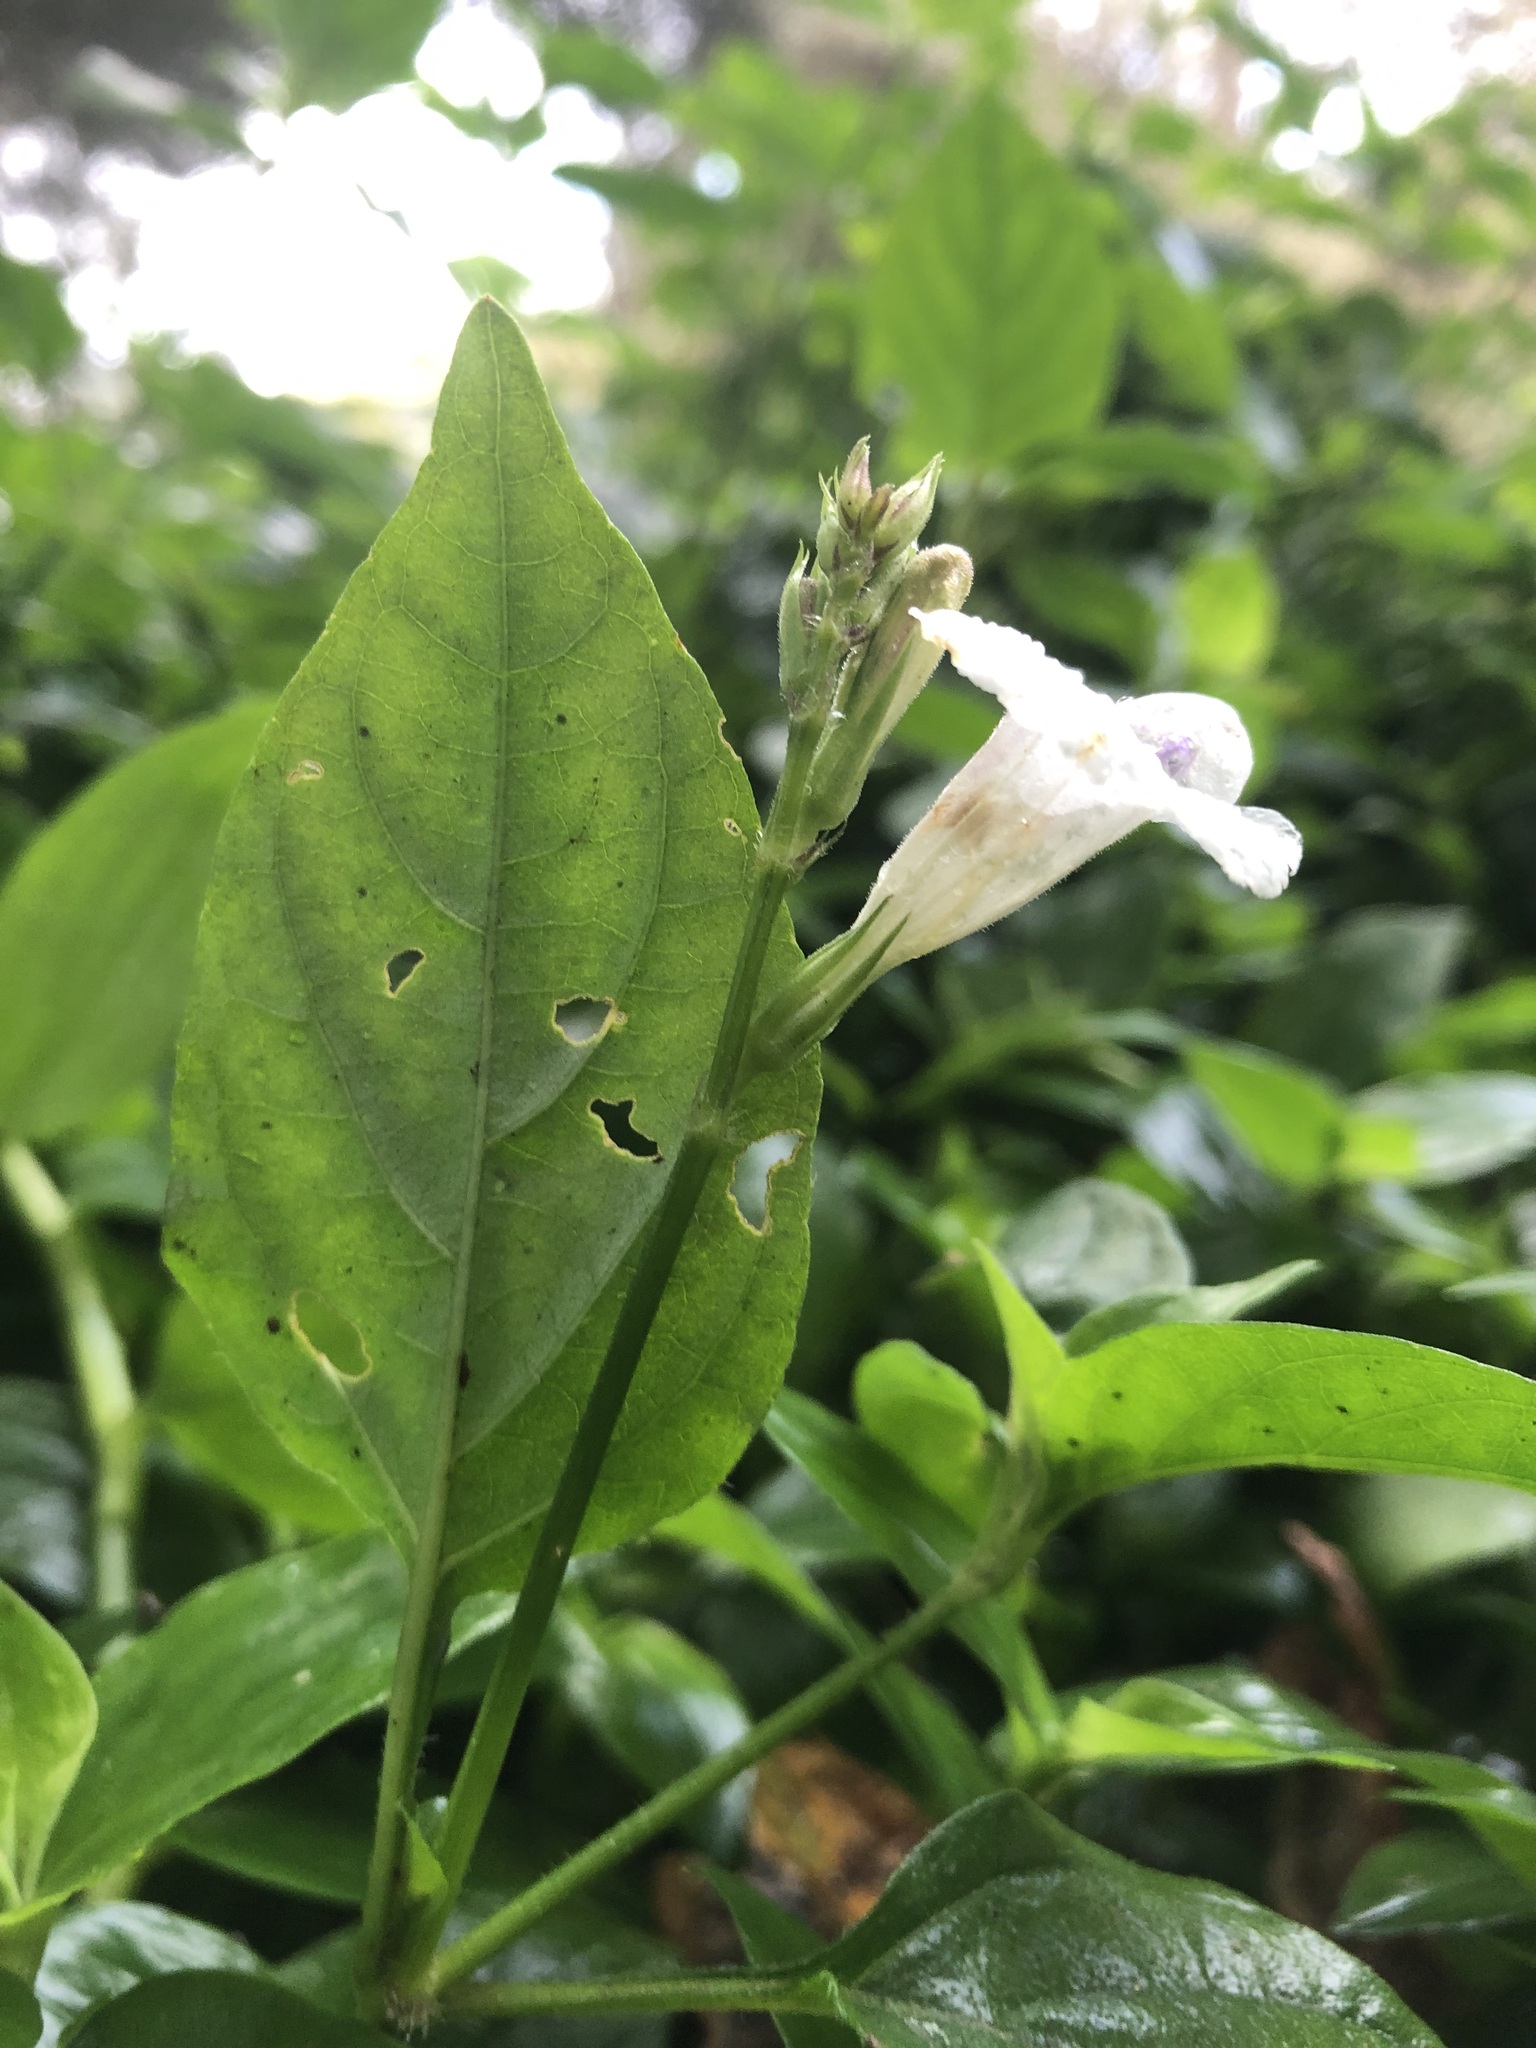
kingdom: Plantae
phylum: Tracheophyta
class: Magnoliopsida
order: Lamiales
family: Acanthaceae
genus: Asystasia
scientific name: Asystasia intrusa
